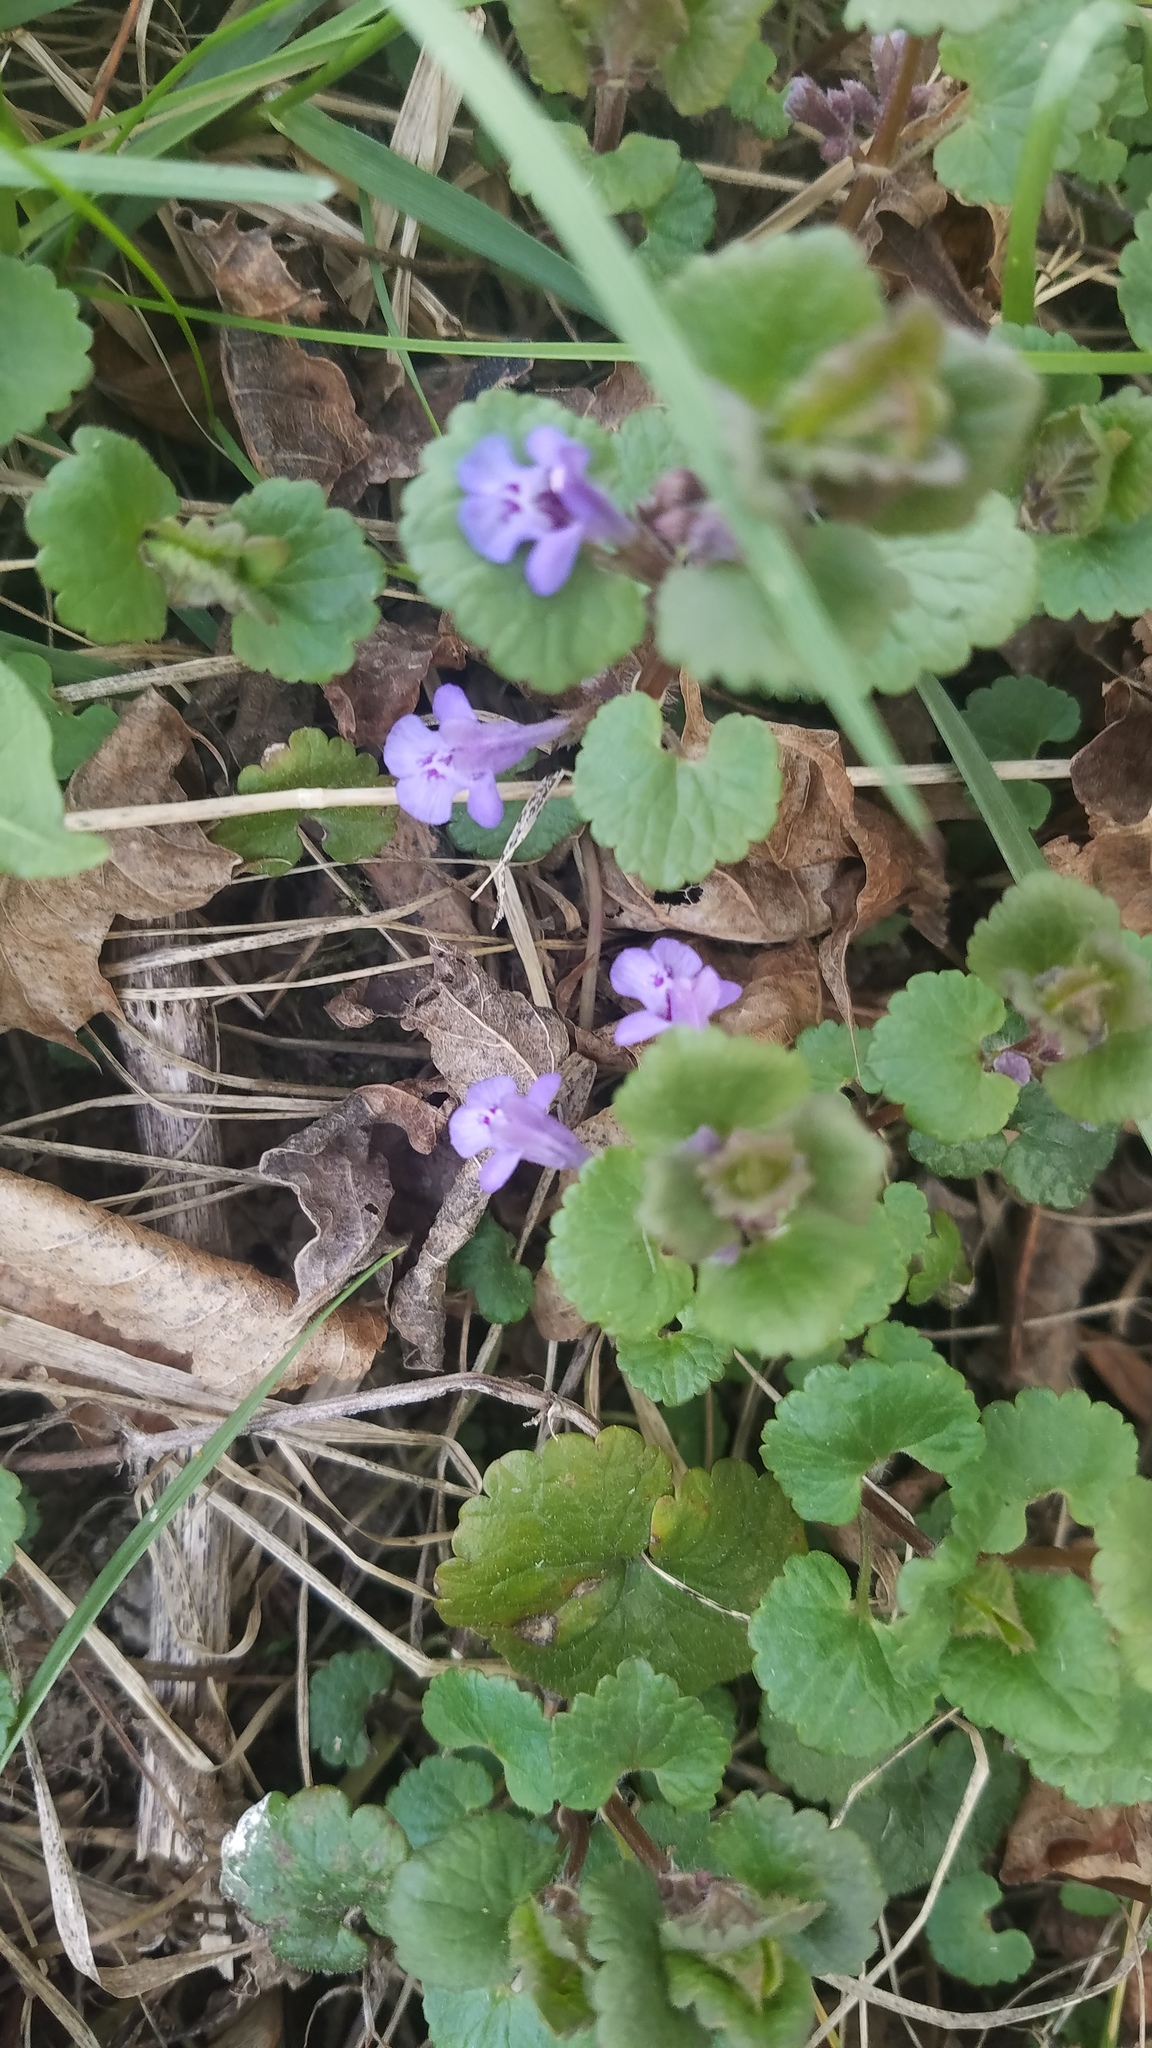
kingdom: Plantae
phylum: Tracheophyta
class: Magnoliopsida
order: Lamiales
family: Lamiaceae
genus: Glechoma
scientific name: Glechoma hederacea
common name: Ground ivy
